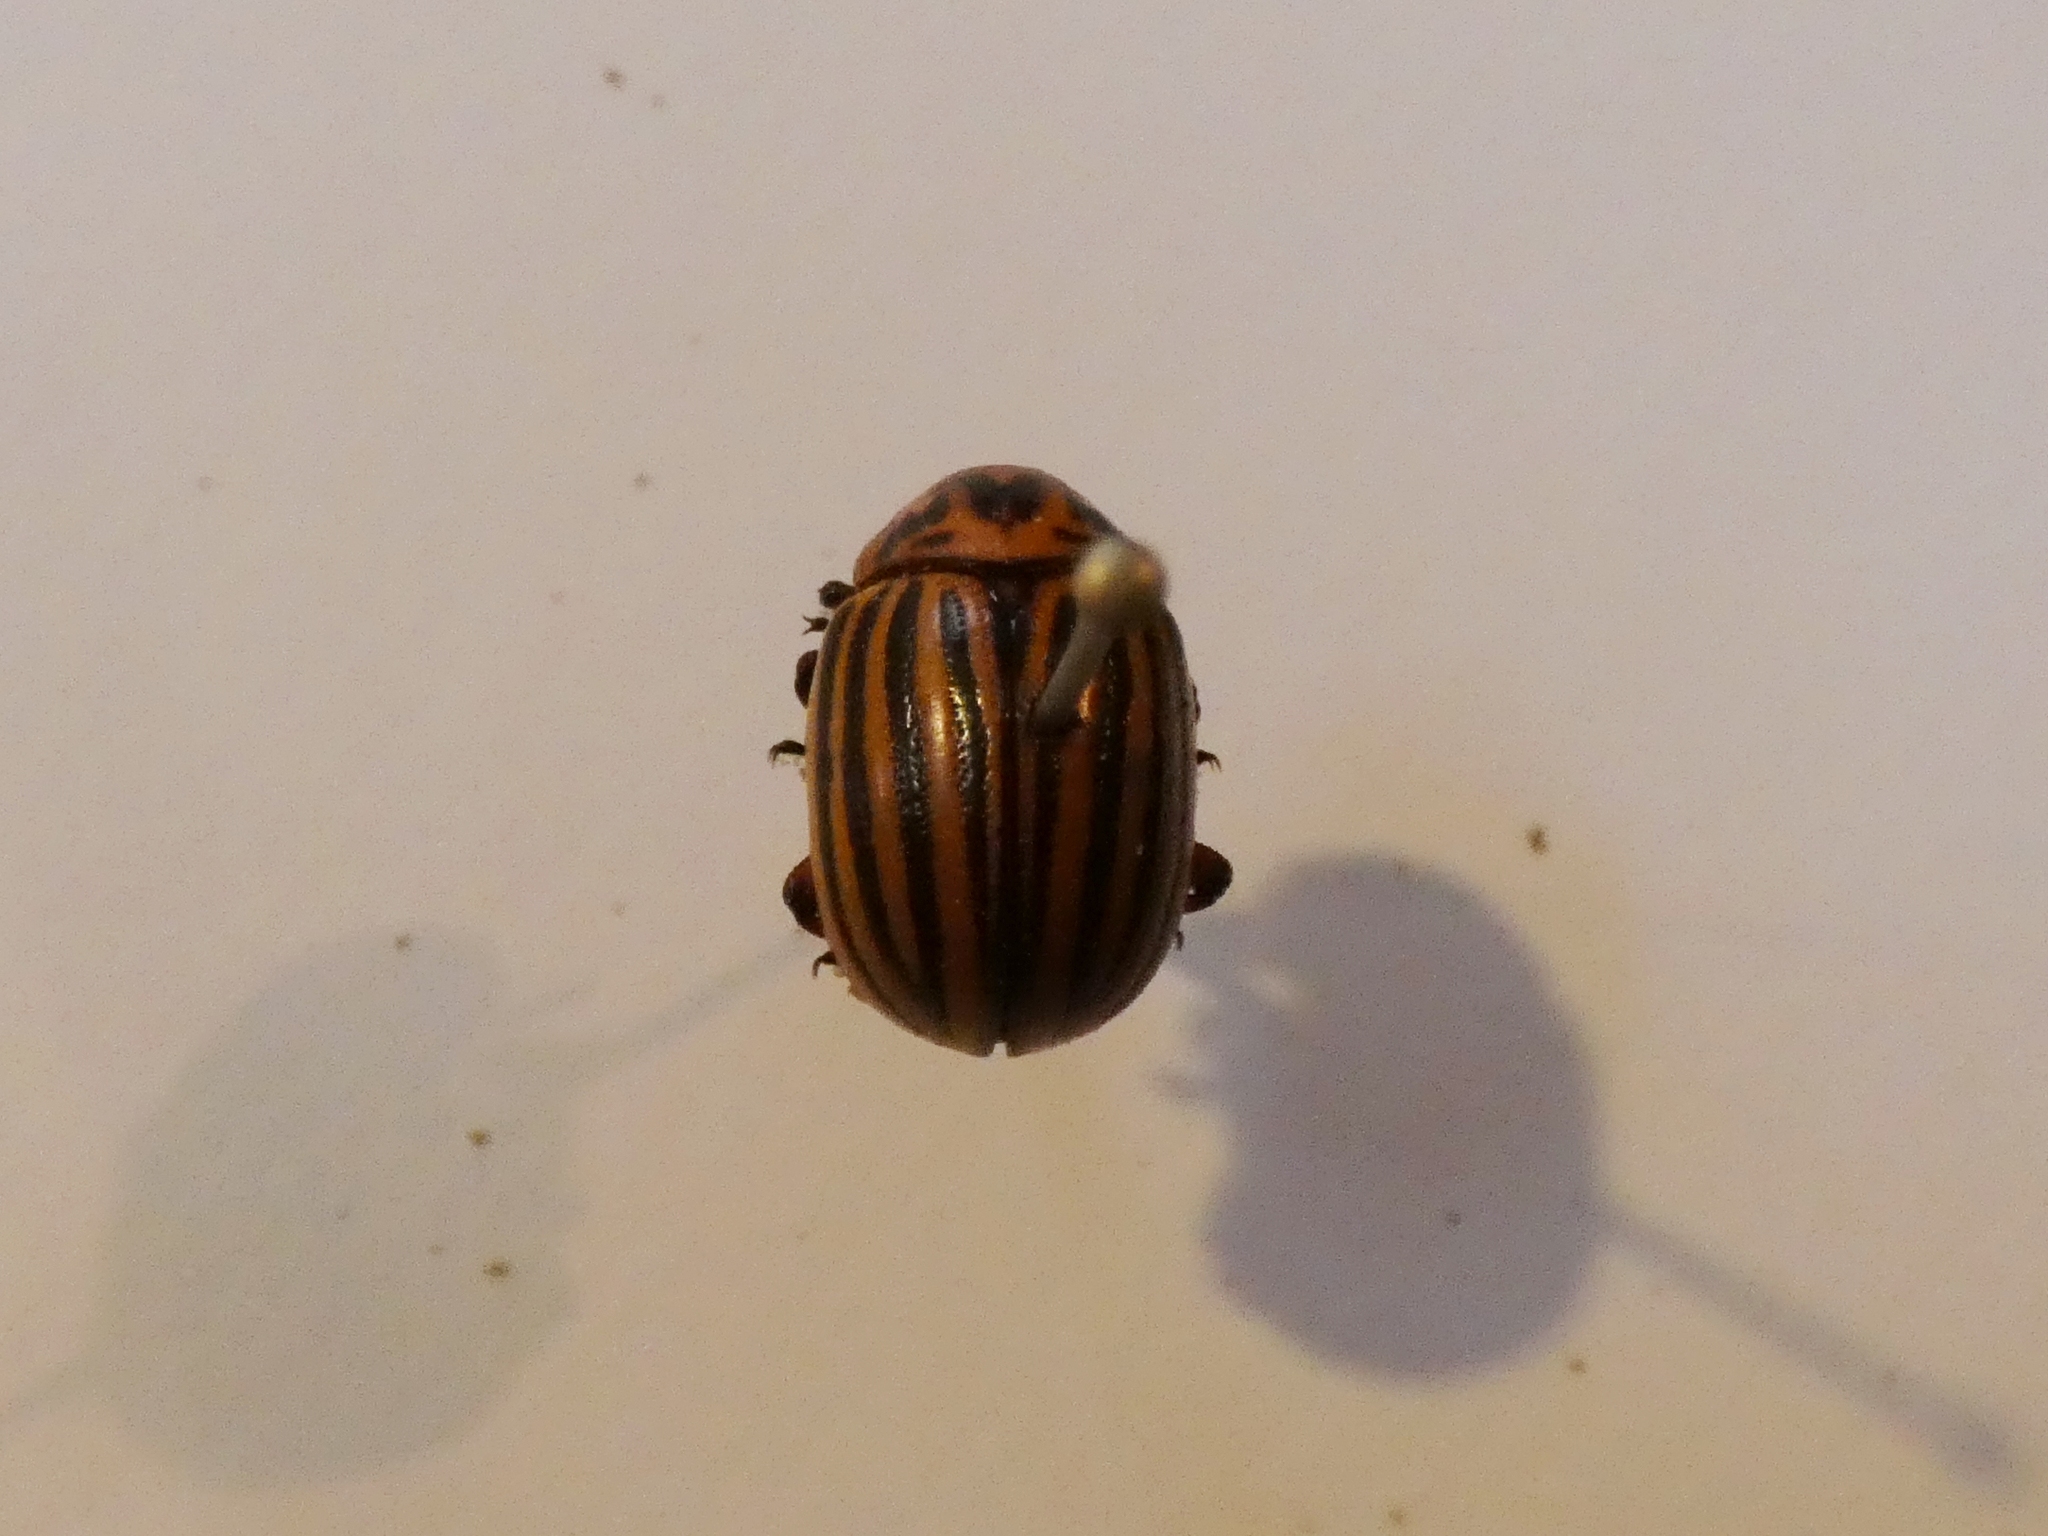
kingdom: Animalia
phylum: Arthropoda
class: Insecta
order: Coleoptera
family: Chrysomelidae
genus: Leptinotarsa
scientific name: Leptinotarsa decemlineata
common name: Colorado potato beetle
